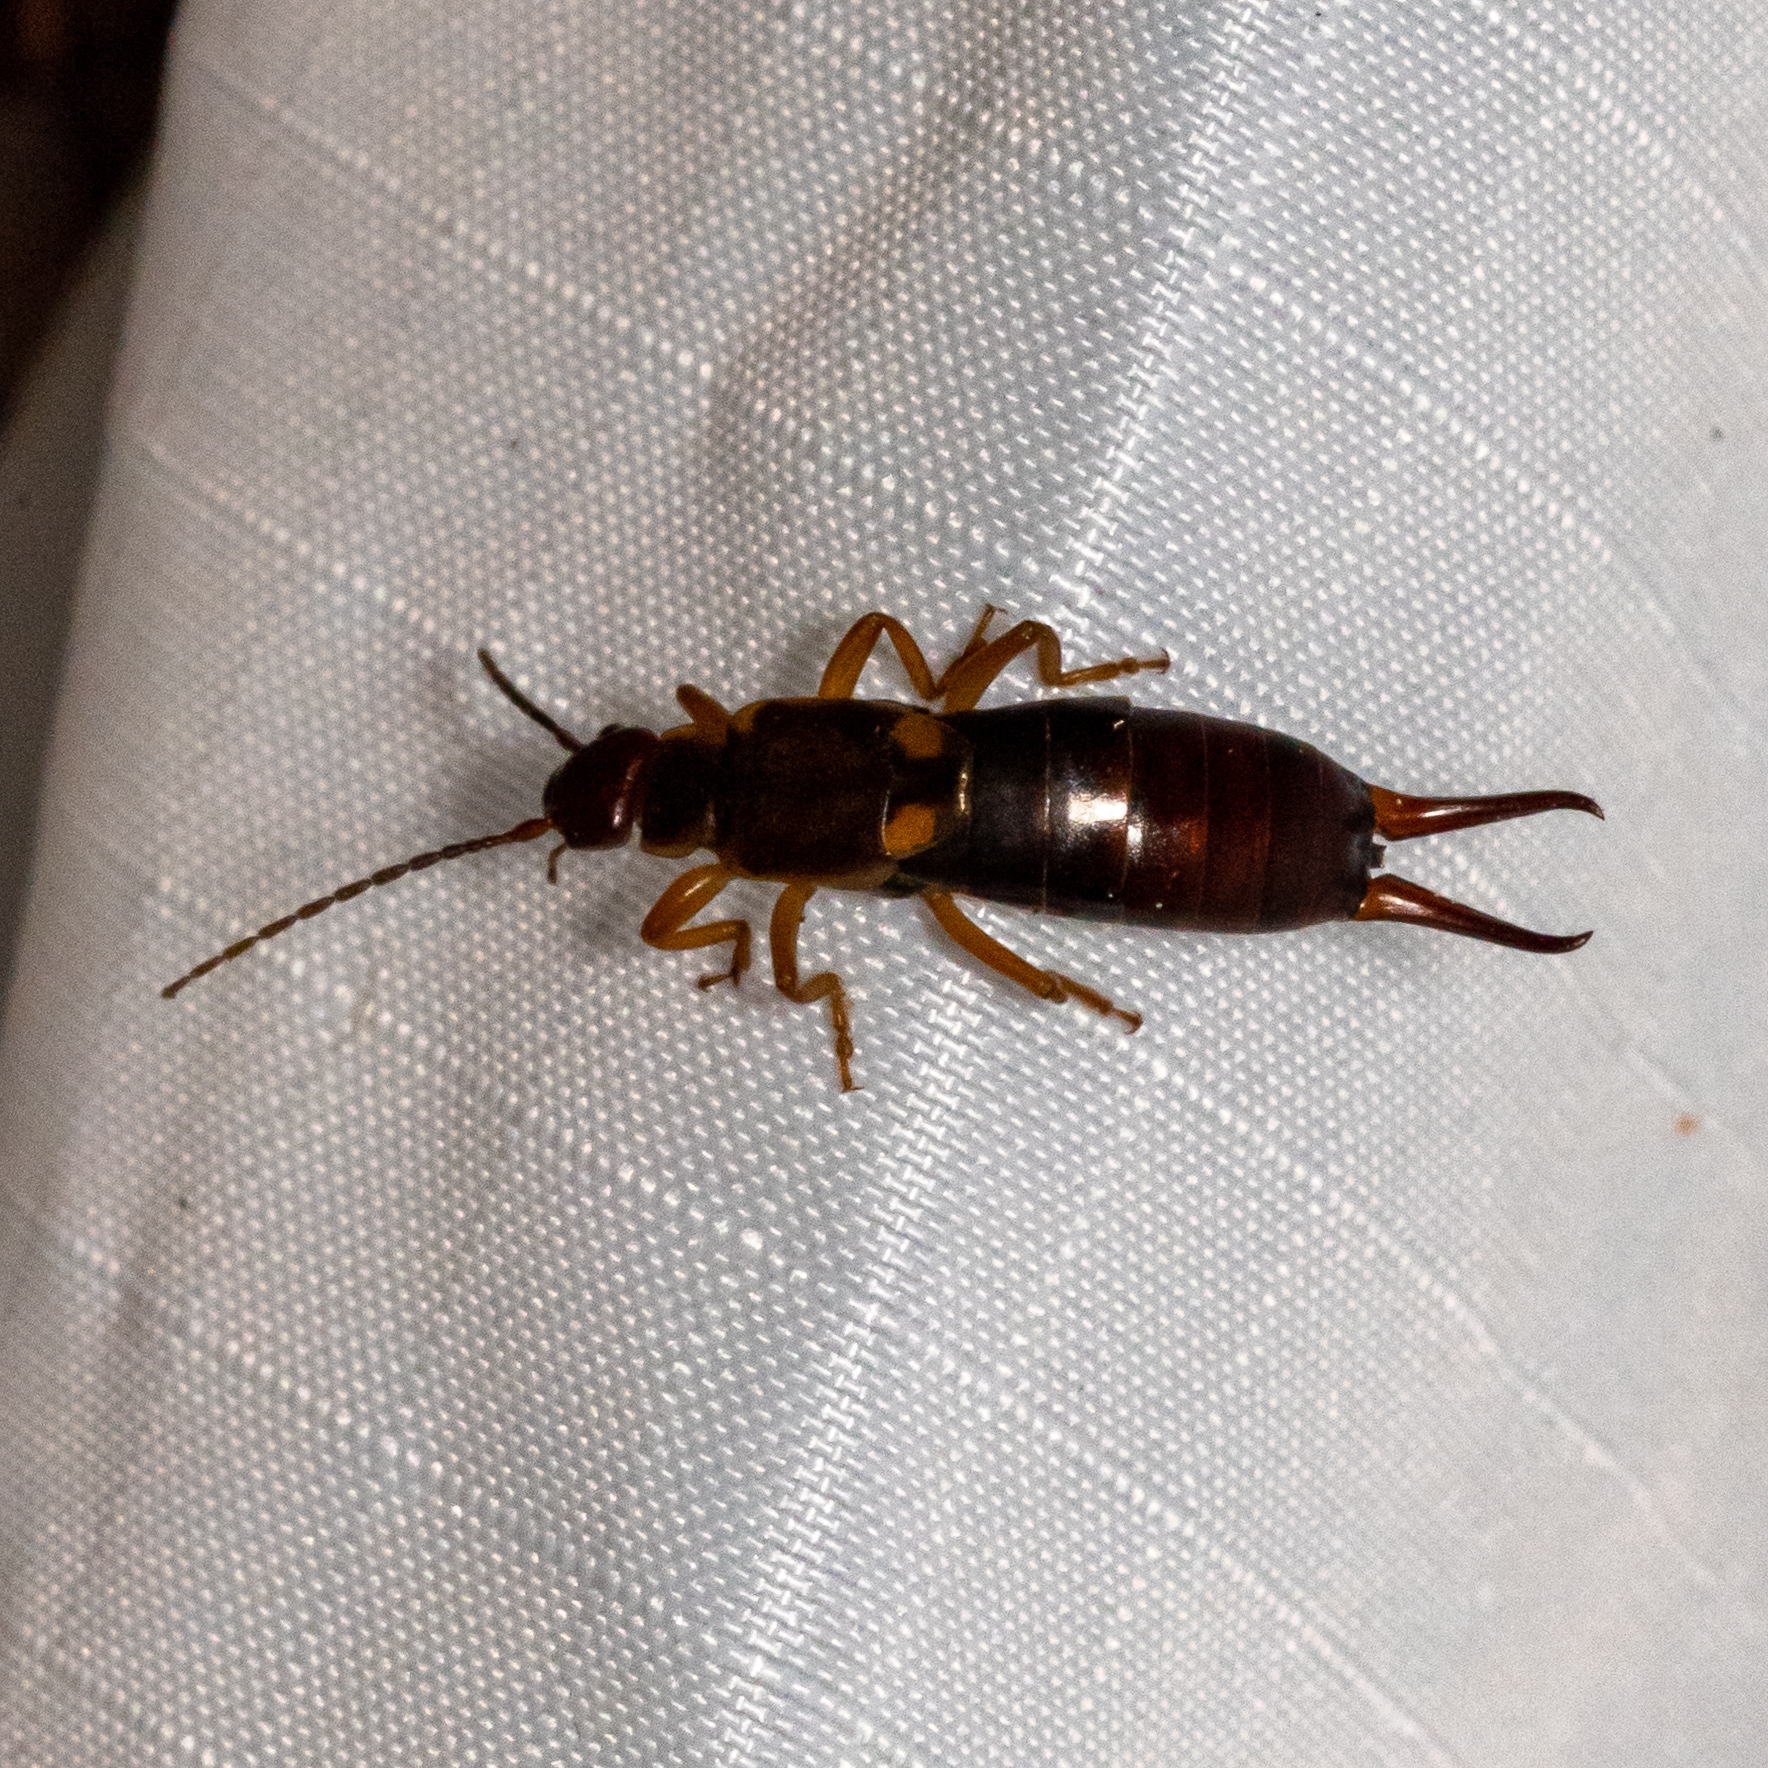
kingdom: Animalia
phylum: Arthropoda
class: Insecta
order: Dermaptera
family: Forficulidae
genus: Forficula
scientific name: Forficula
